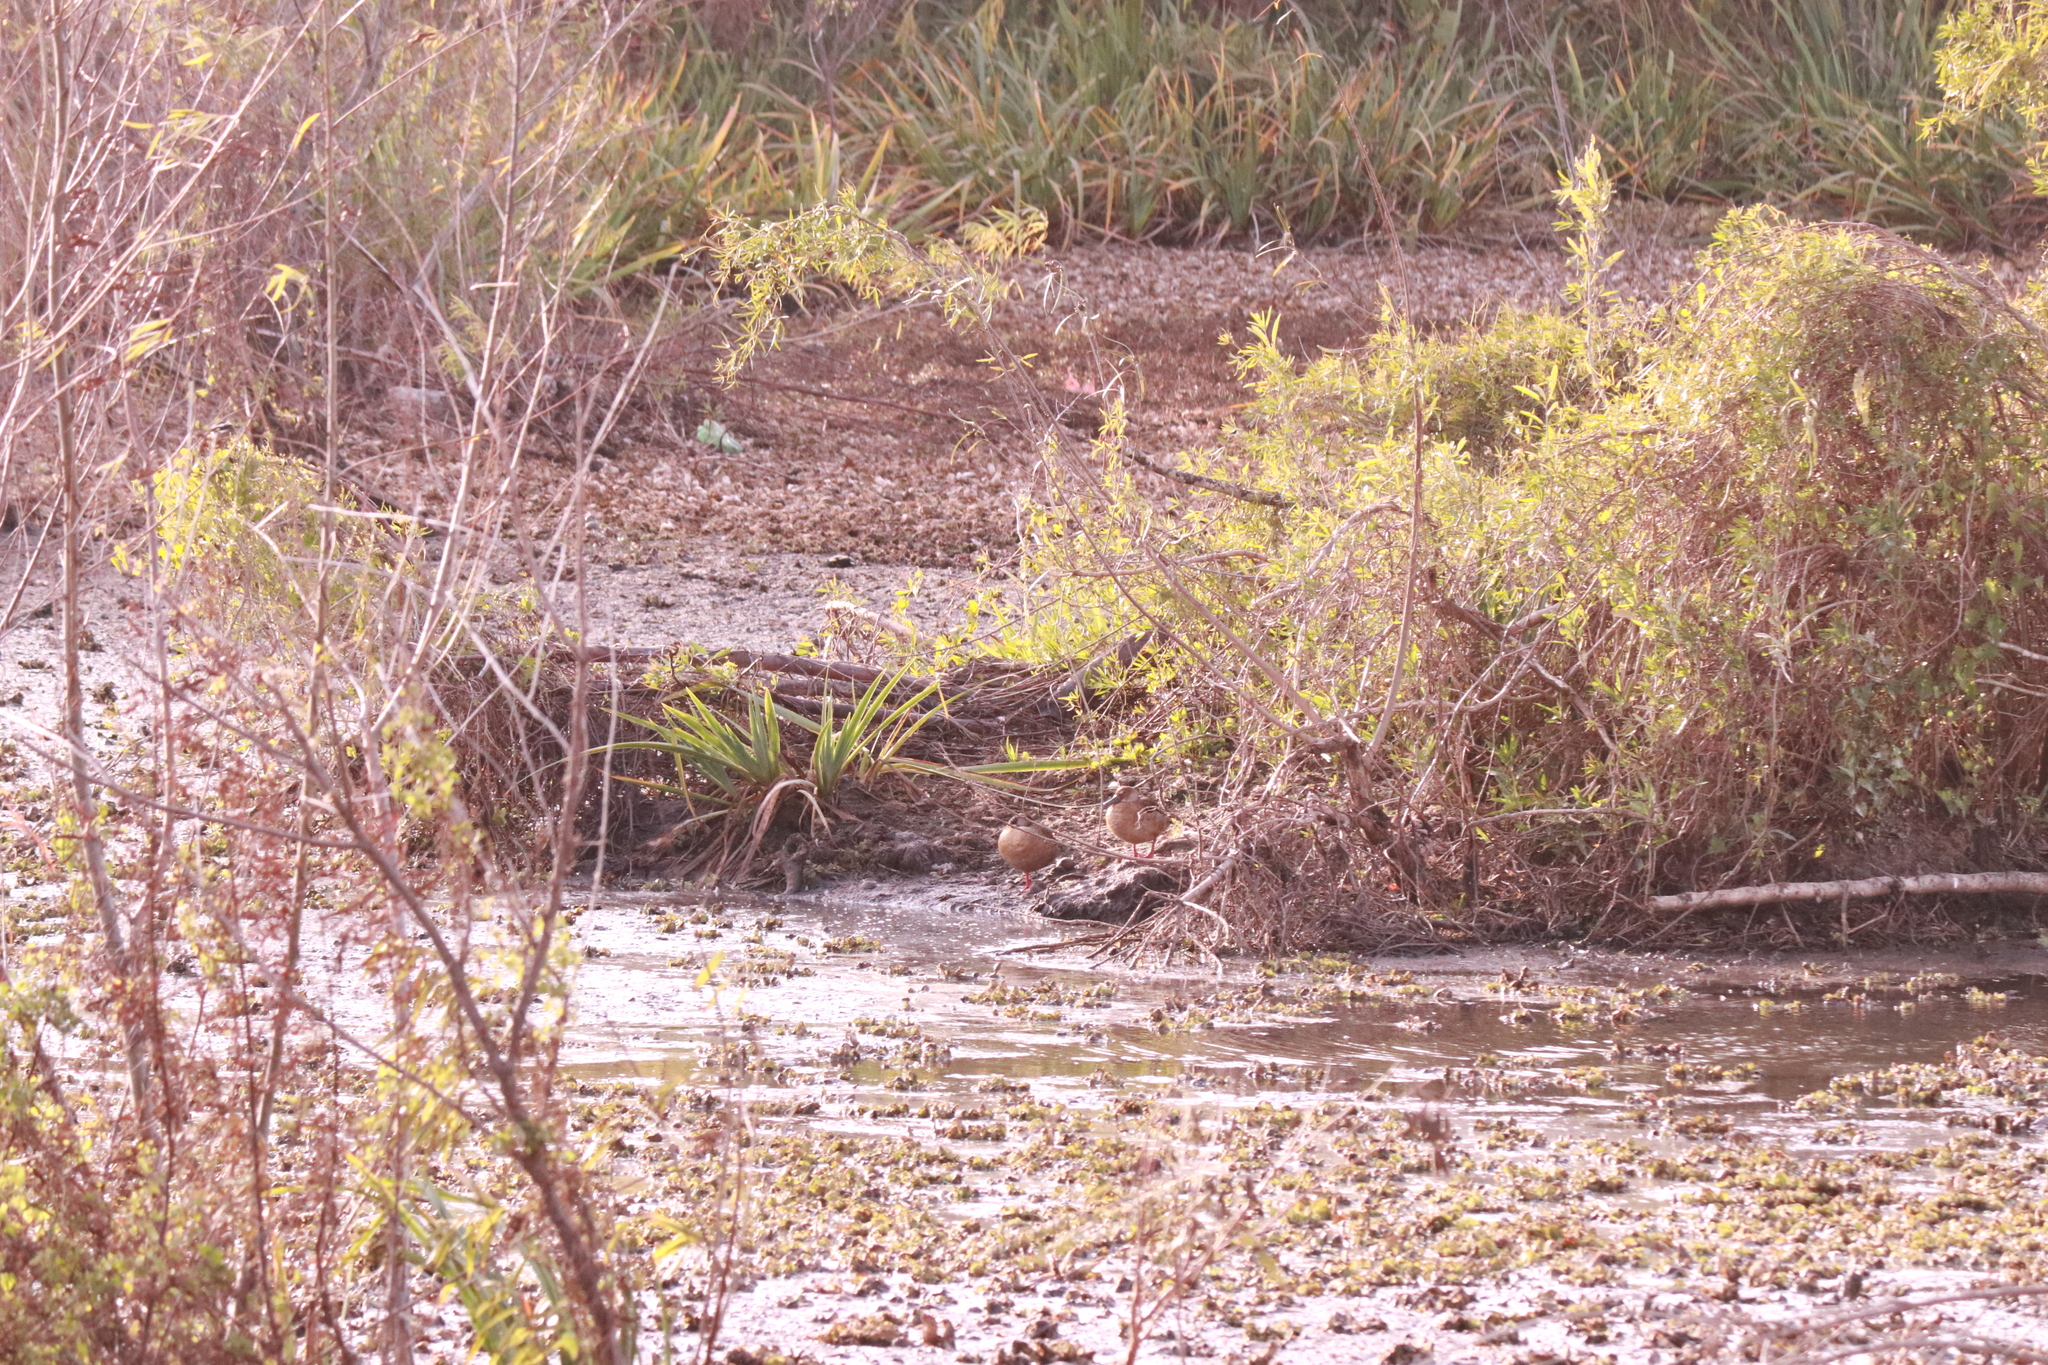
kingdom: Animalia
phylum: Chordata
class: Aves
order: Anseriformes
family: Anatidae
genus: Amazonetta
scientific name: Amazonetta brasiliensis
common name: Brazilian teal
